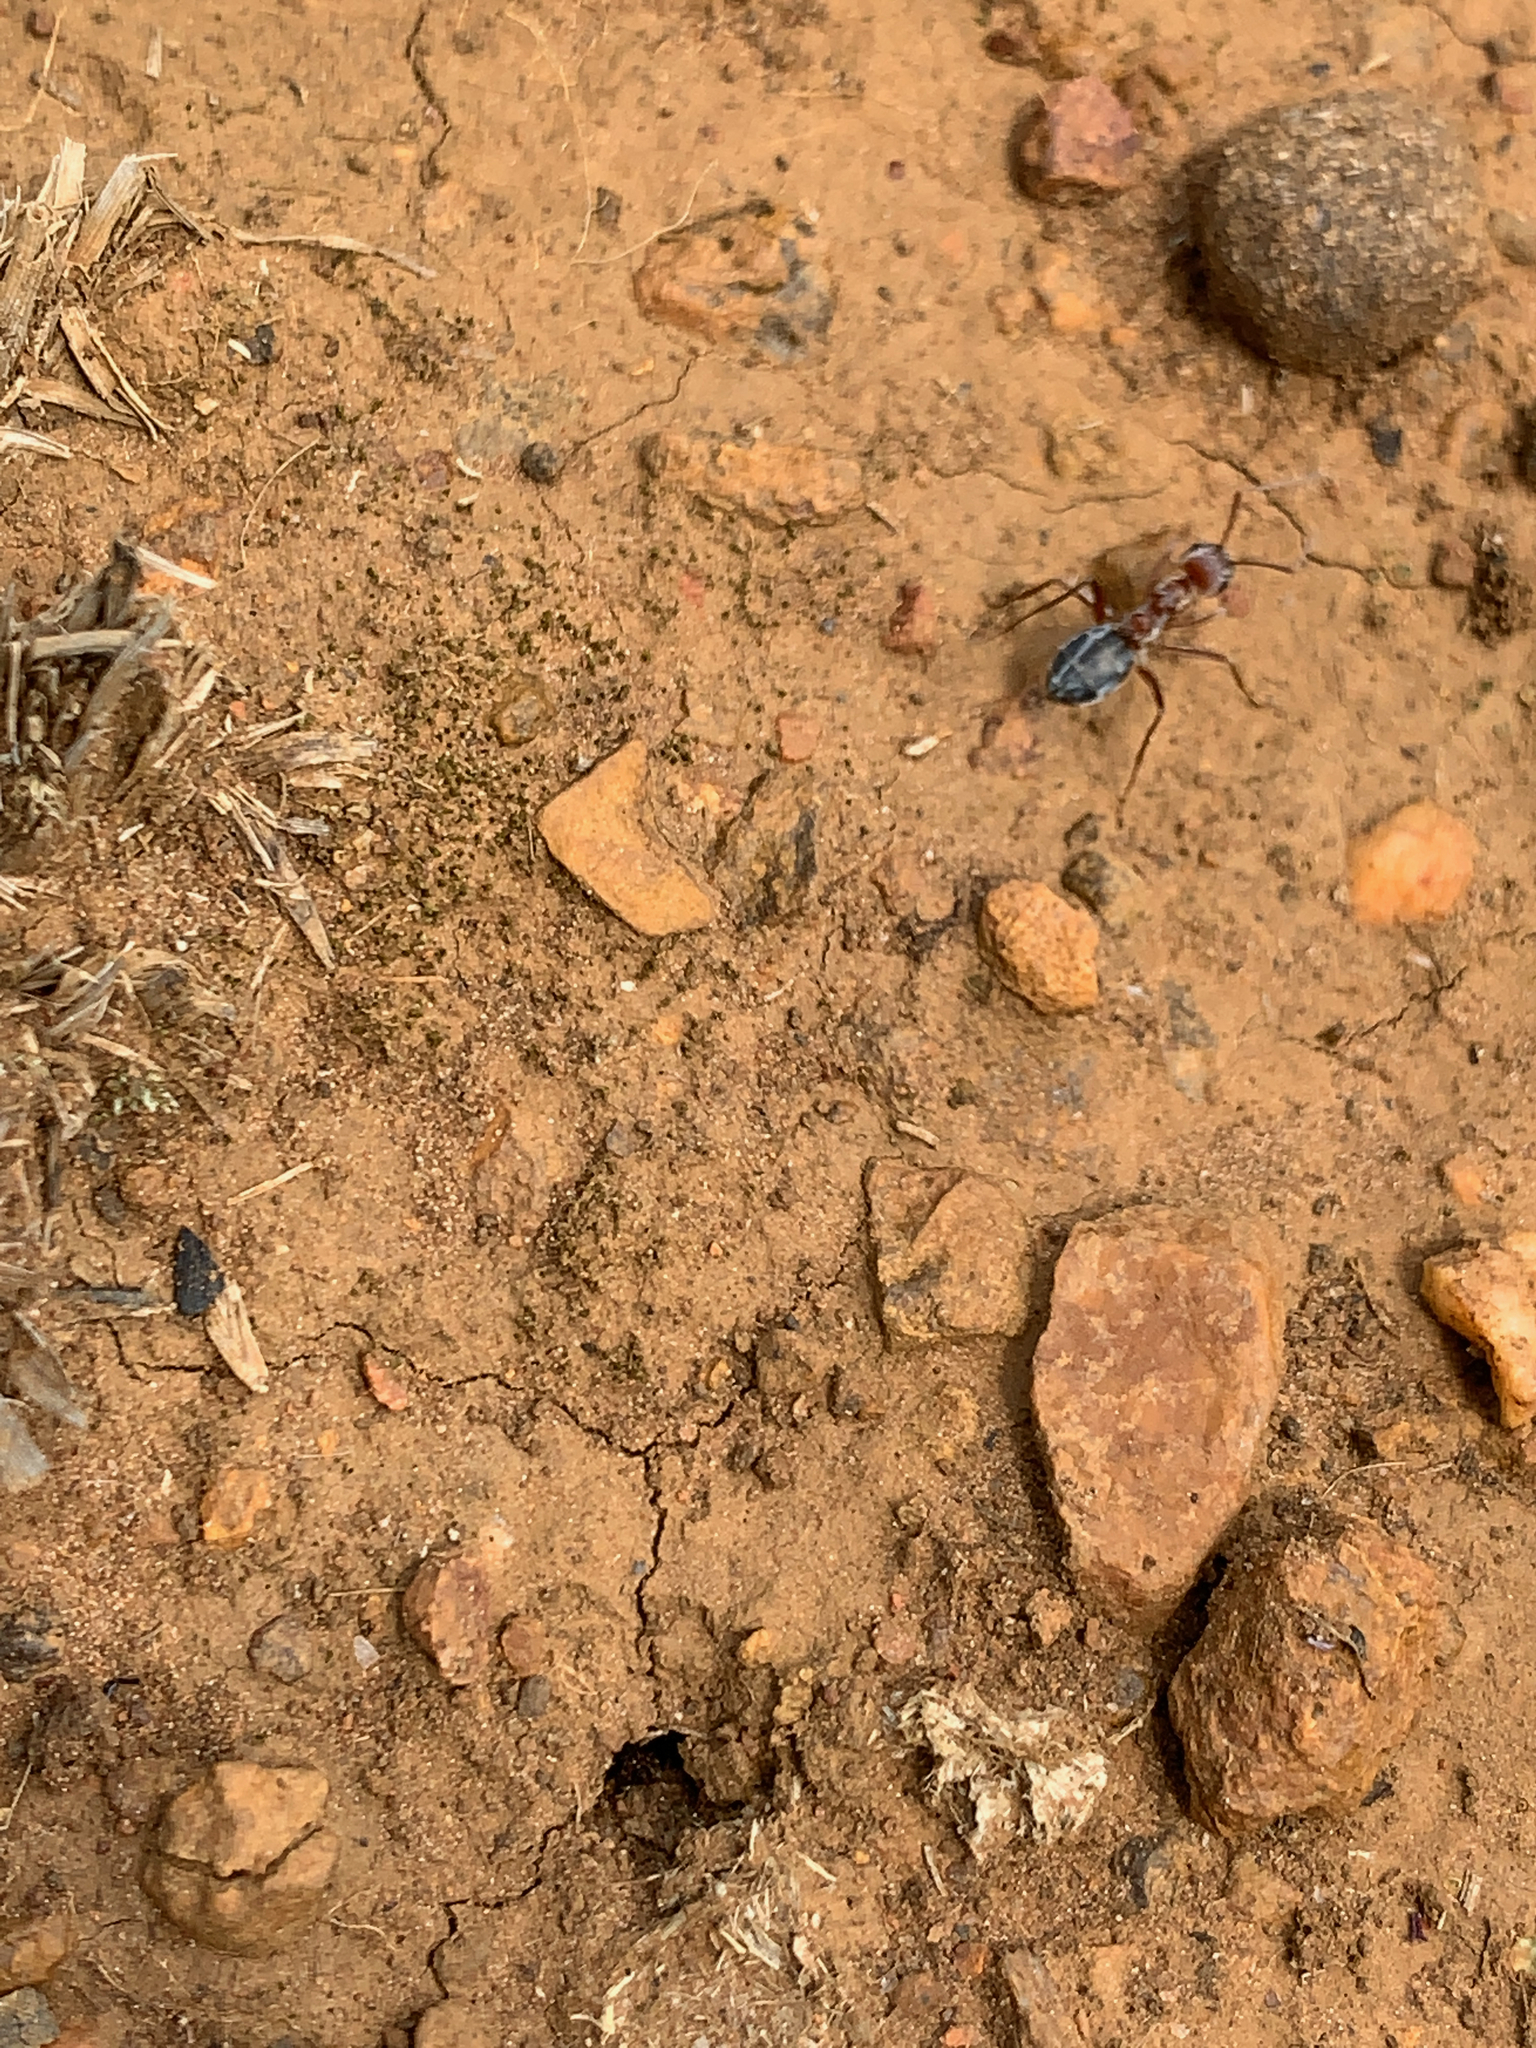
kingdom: Animalia
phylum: Arthropoda
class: Insecta
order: Hymenoptera
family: Formicidae
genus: Anoplolepis
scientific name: Anoplolepis custodiens
